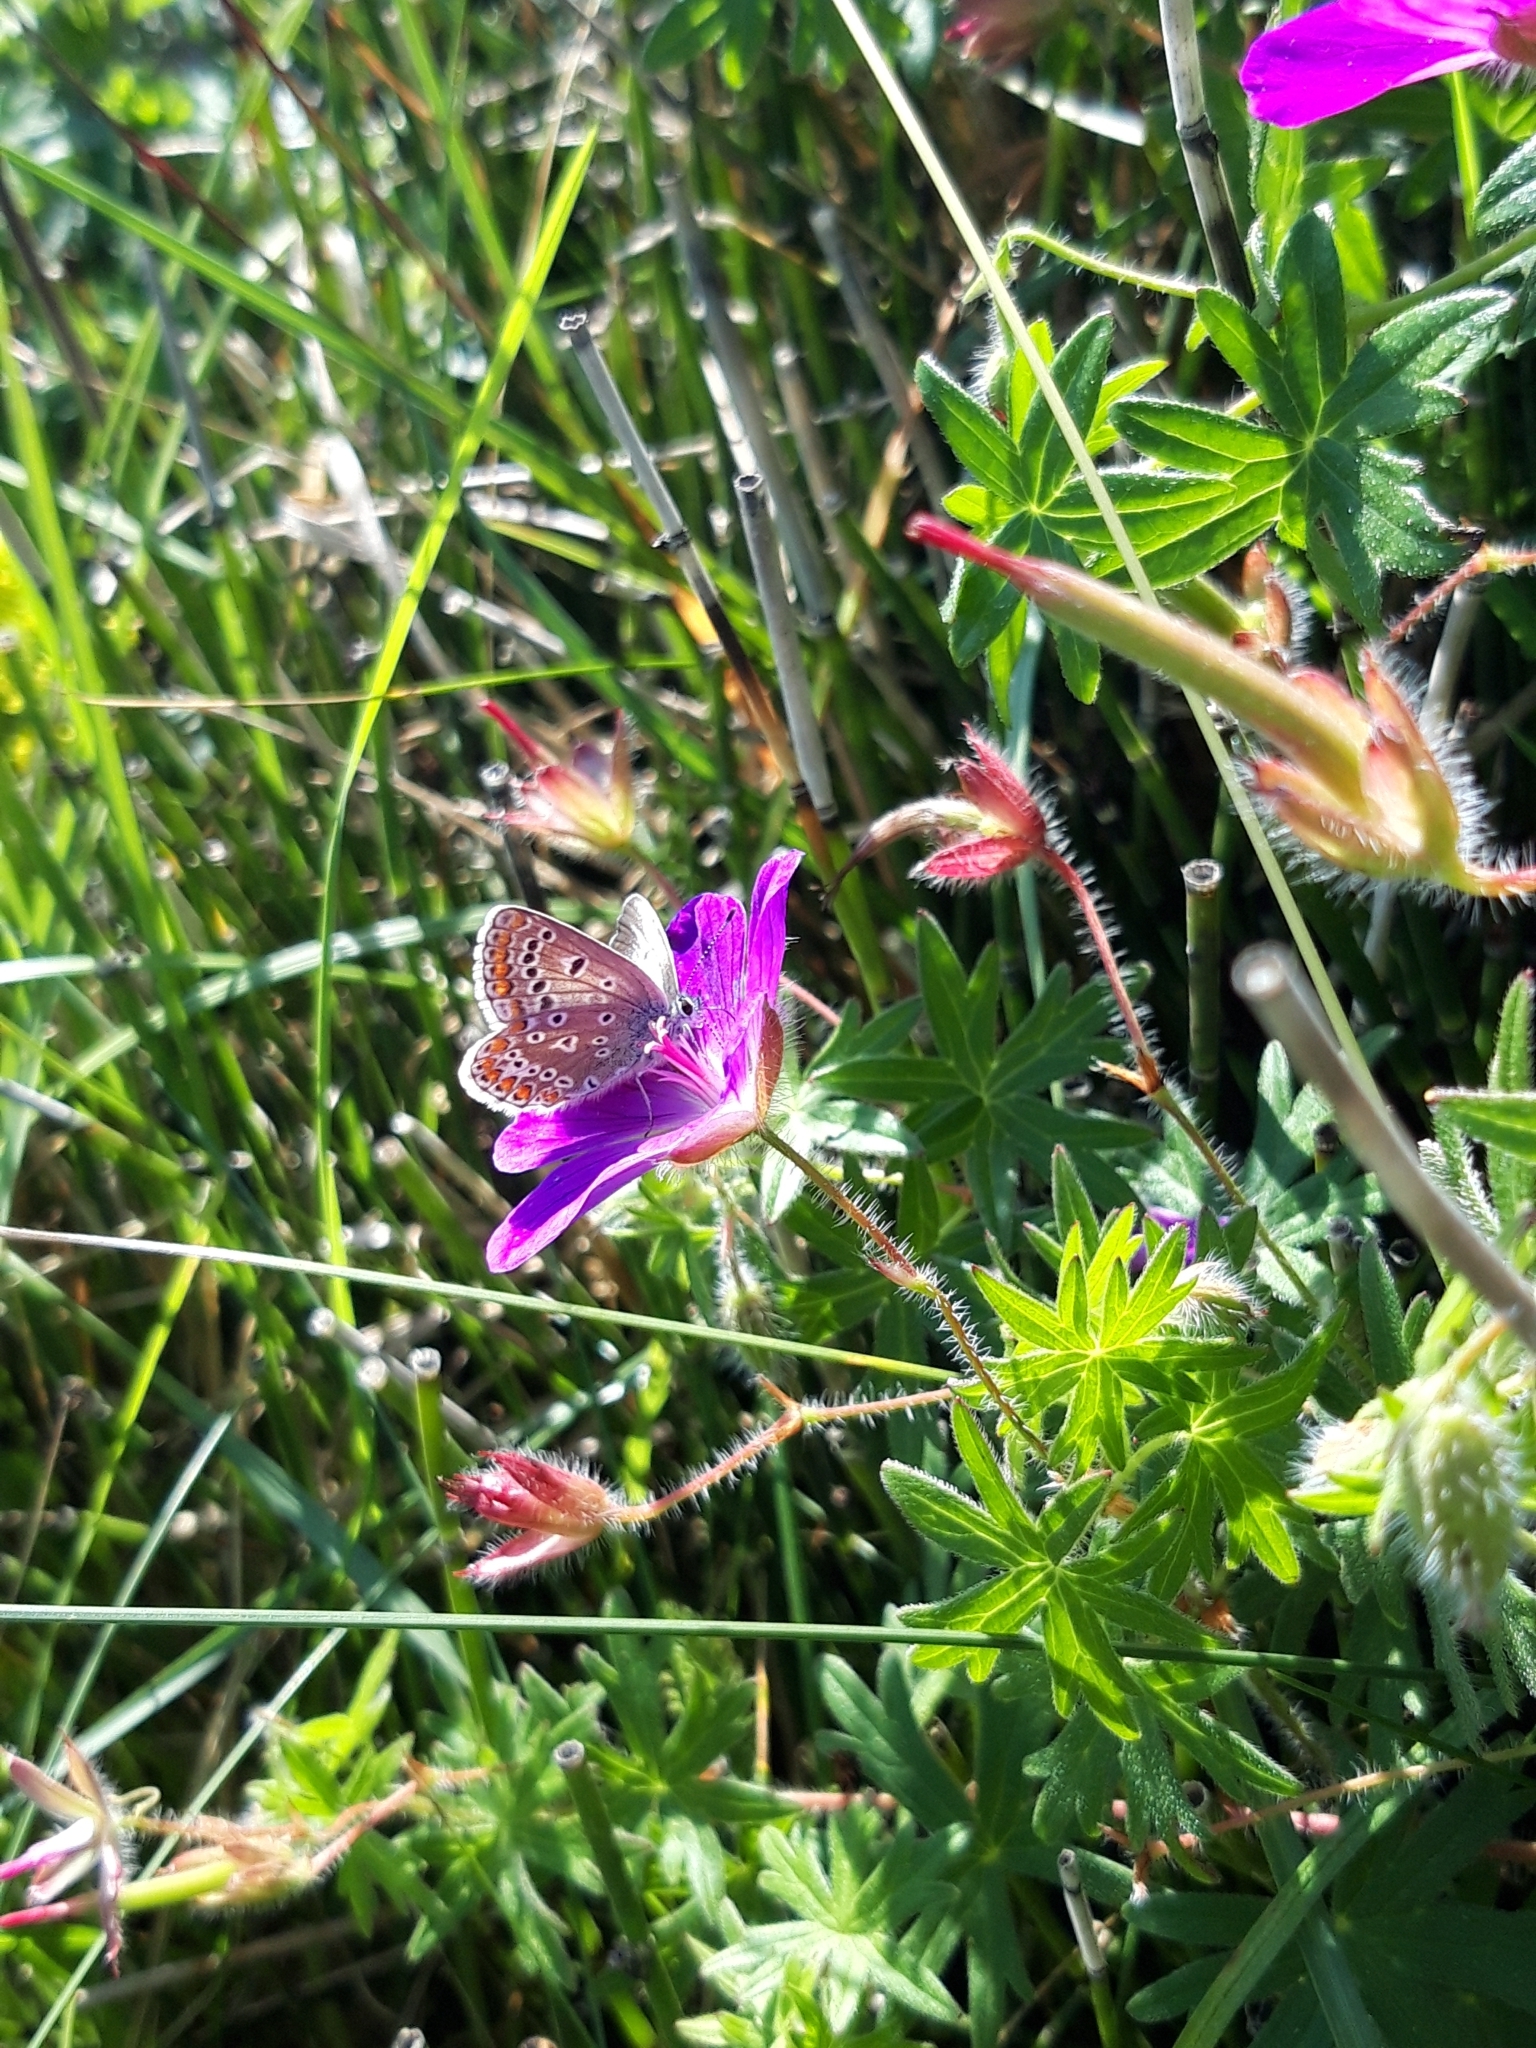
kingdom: Plantae
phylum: Tracheophyta
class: Magnoliopsida
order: Geraniales
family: Geraniaceae
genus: Geranium
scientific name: Geranium sanguineum
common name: Bloody crane's-bill
